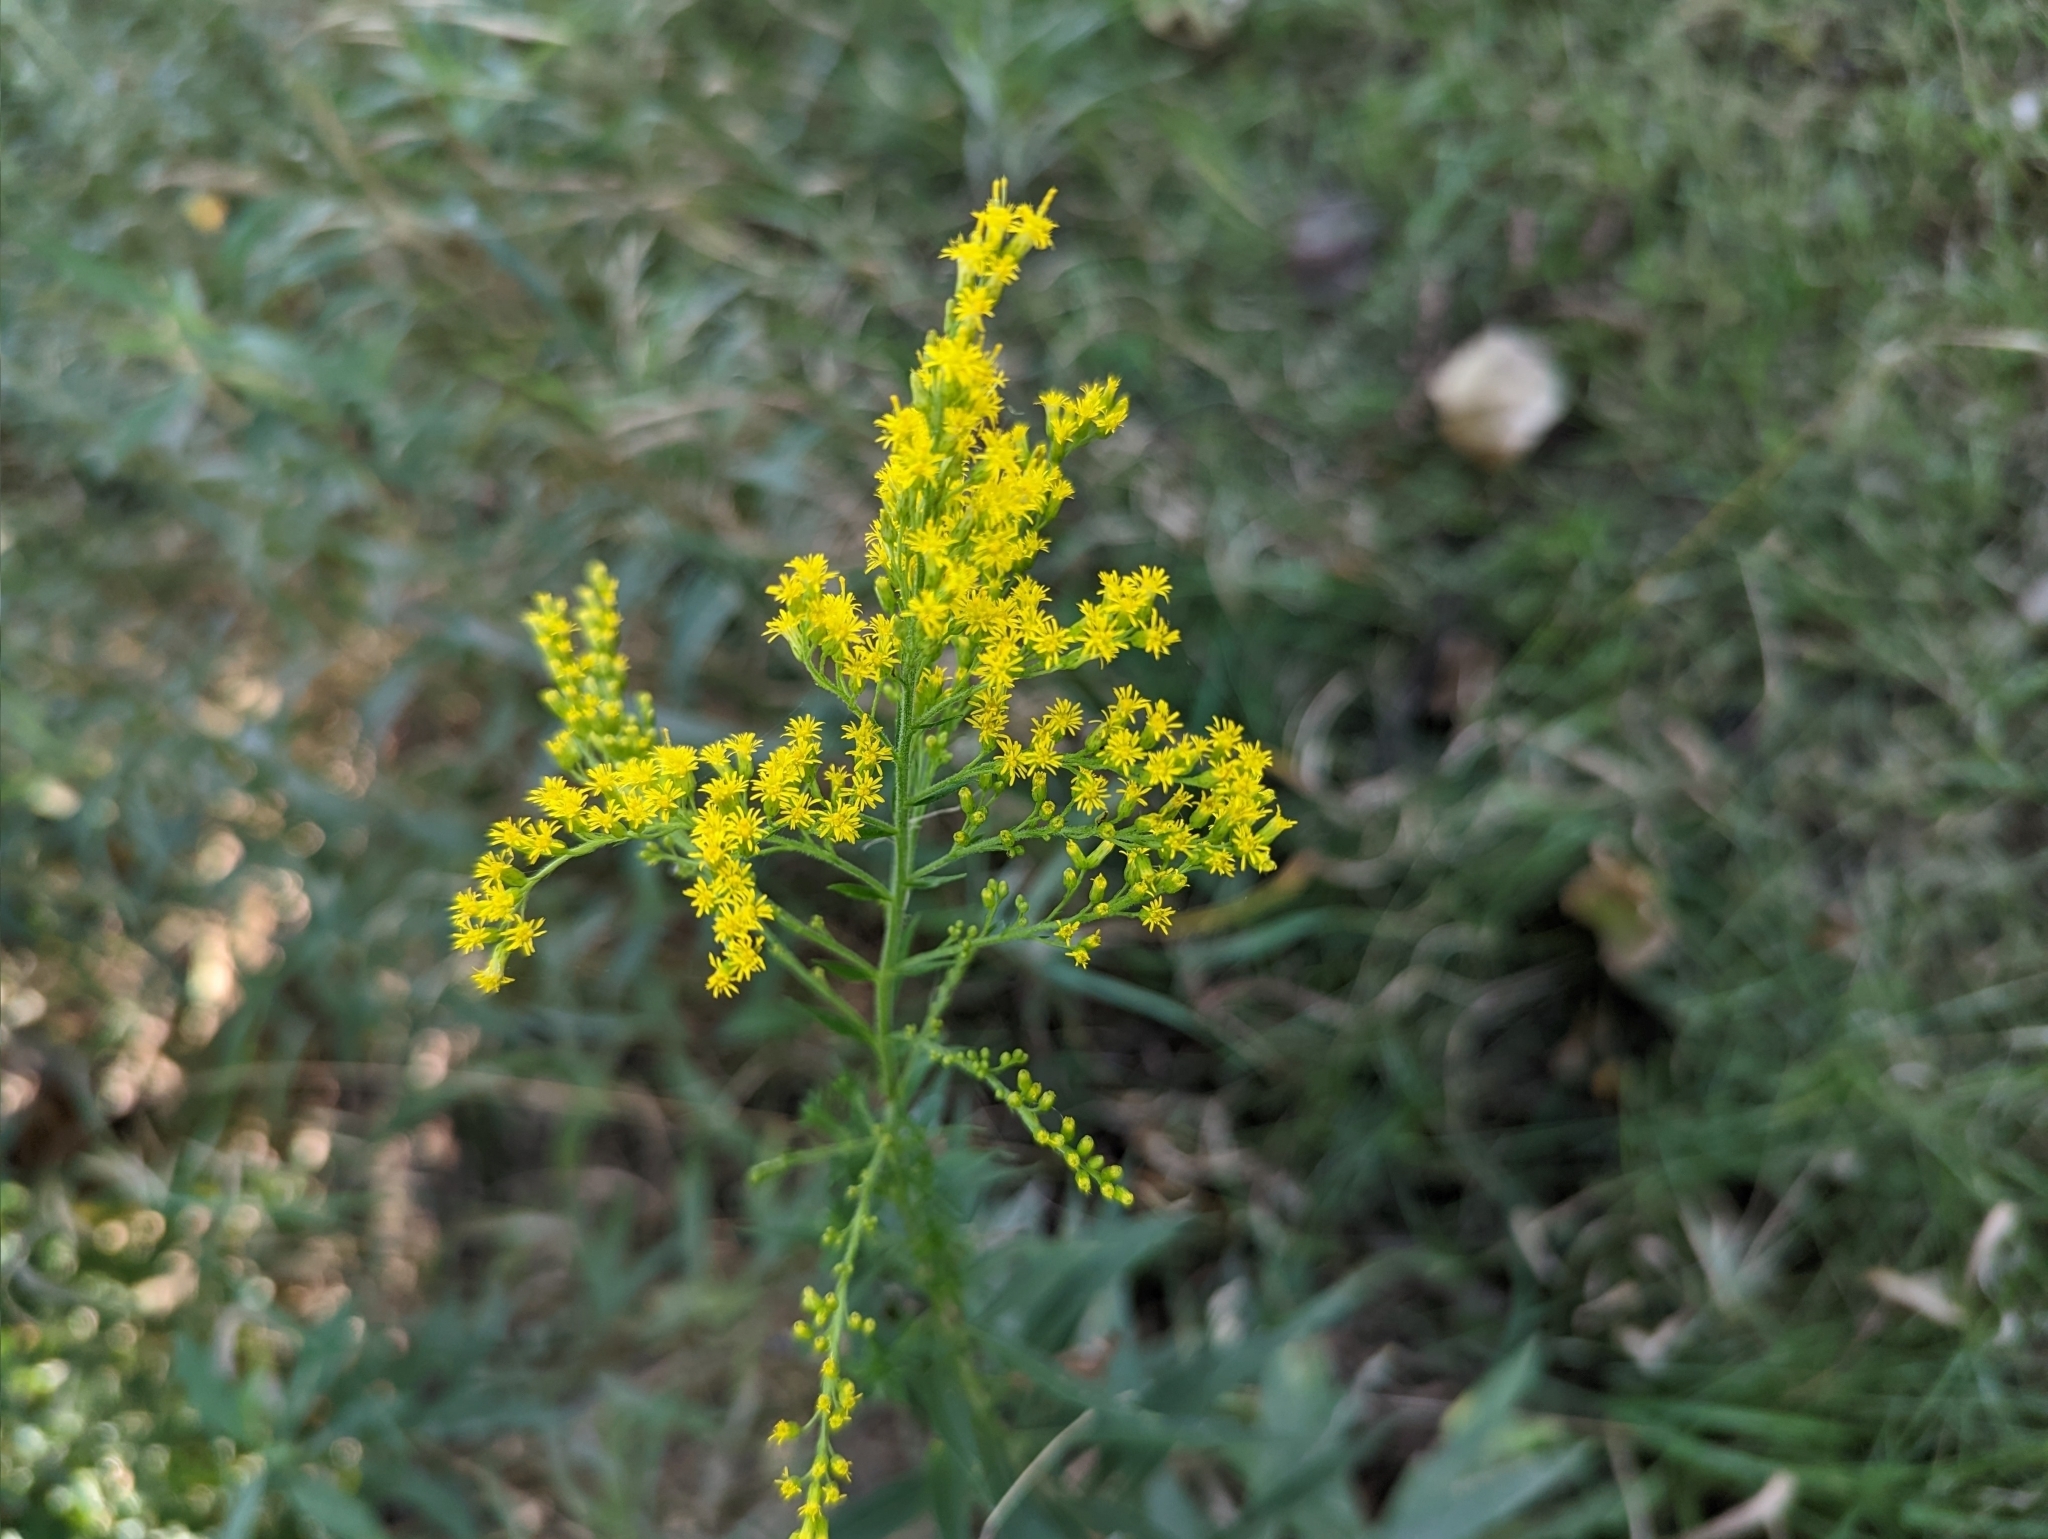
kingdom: Plantae
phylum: Tracheophyta
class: Magnoliopsida
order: Asterales
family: Asteraceae
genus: Solidago
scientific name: Solidago altissima
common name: Late goldenrod
